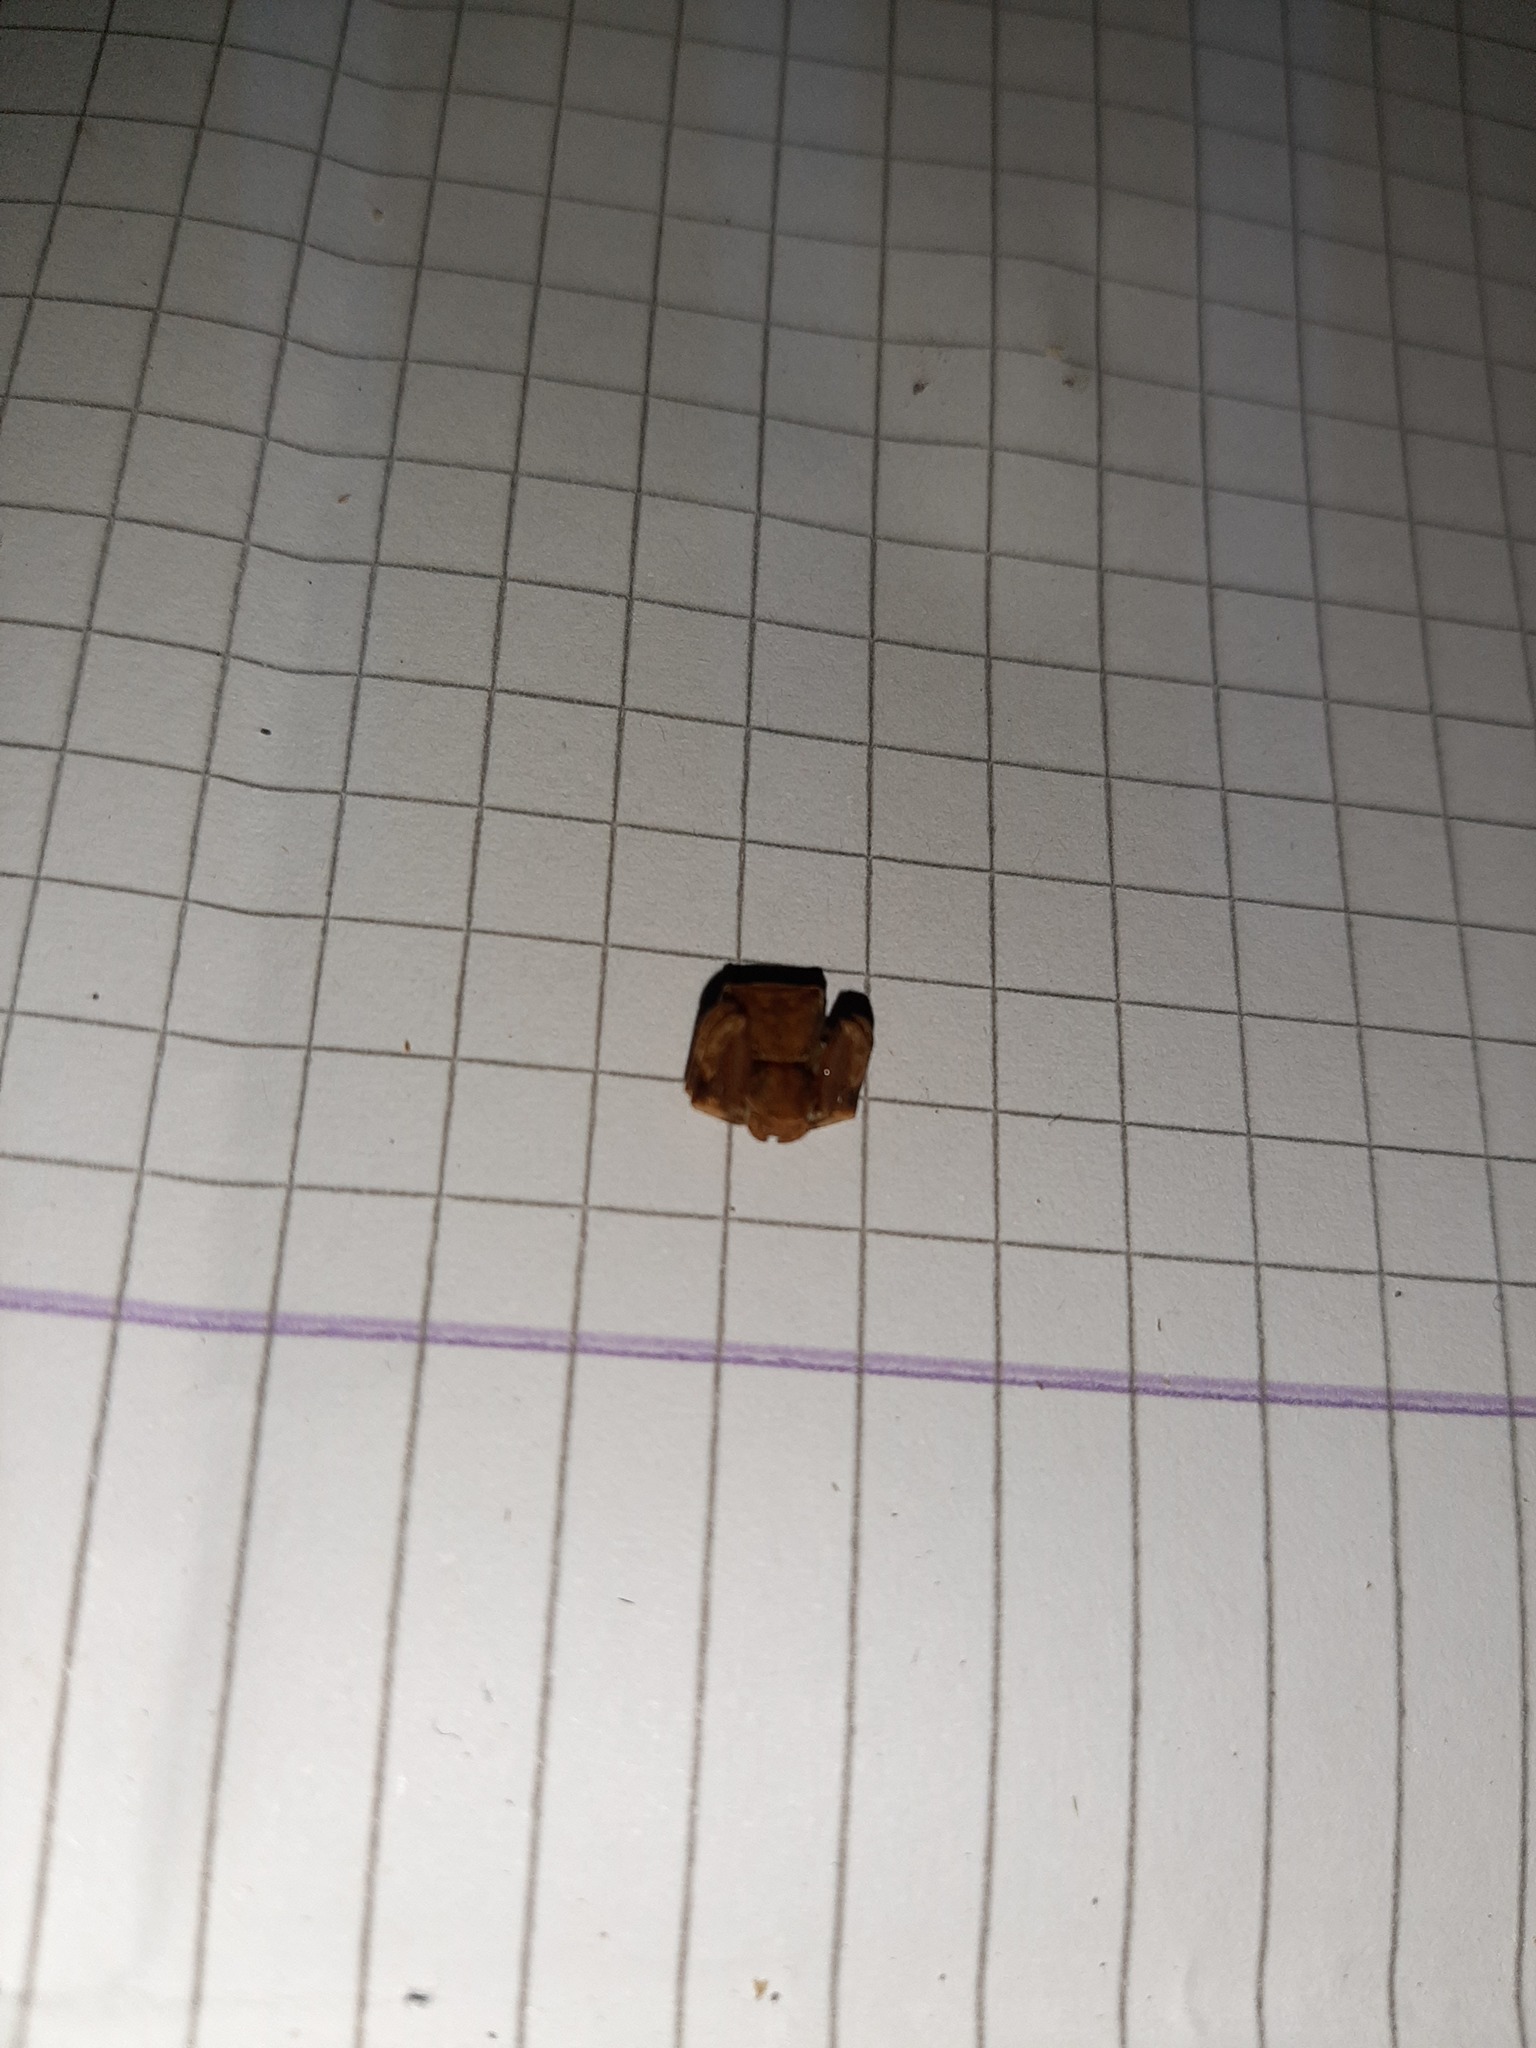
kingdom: Animalia
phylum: Arthropoda
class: Arachnida
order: Araneae
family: Thomisidae
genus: Pistius
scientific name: Pistius truncatus
